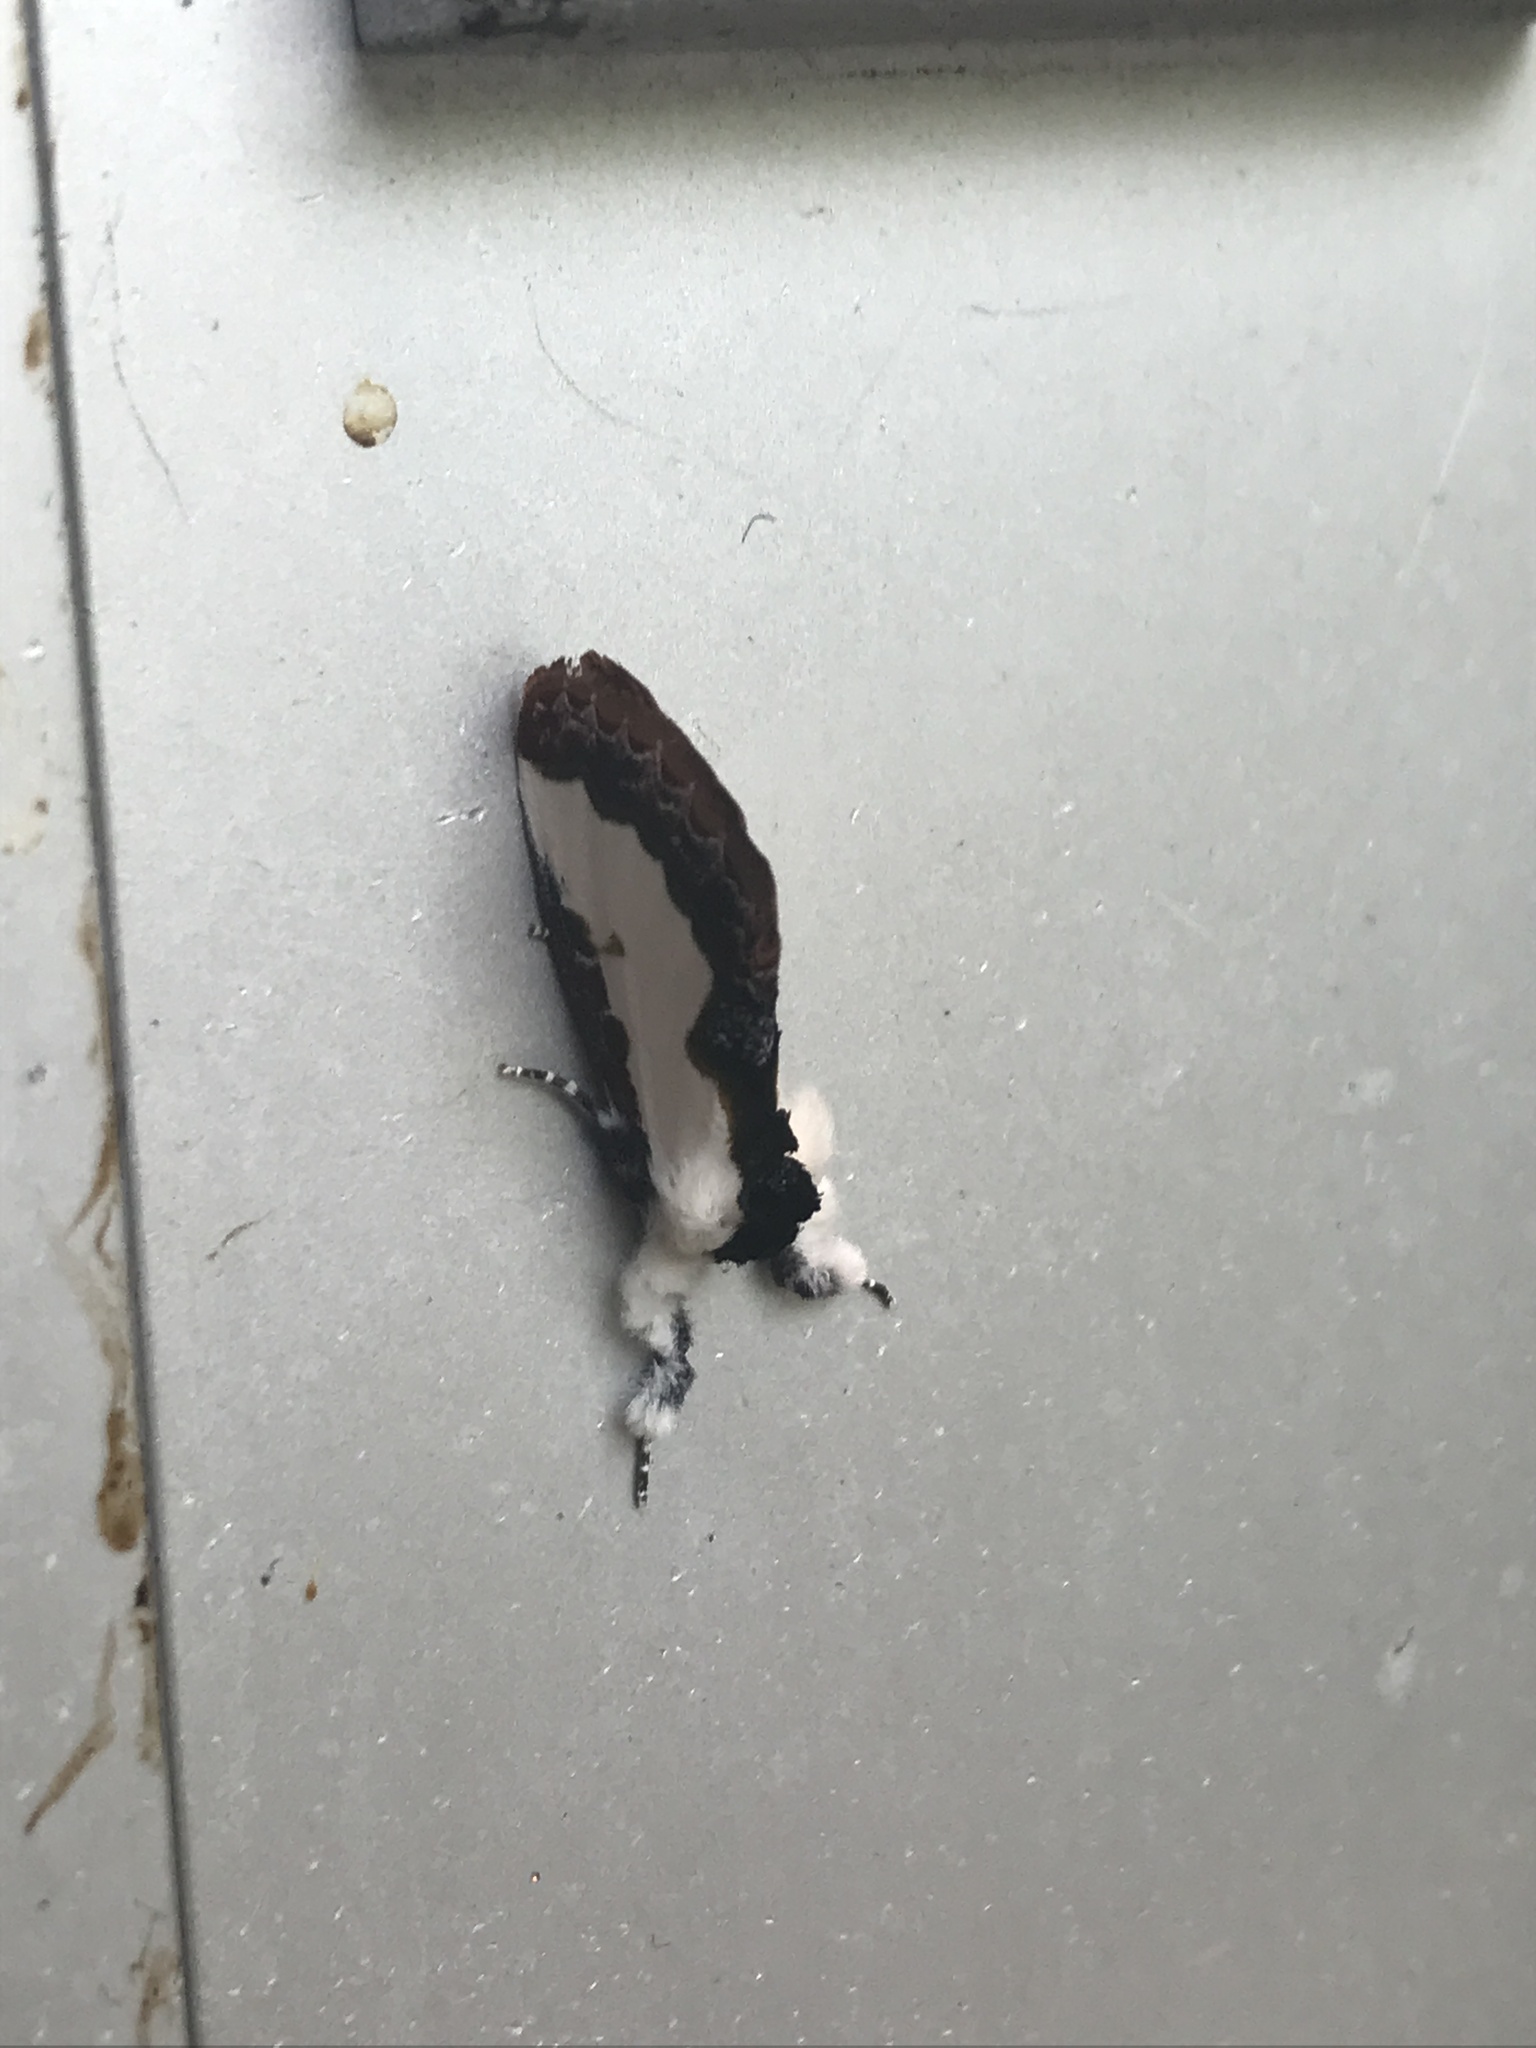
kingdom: Animalia
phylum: Arthropoda
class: Insecta
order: Lepidoptera
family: Noctuidae
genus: Eudryas
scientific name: Eudryas unio
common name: Pearly wood-nymph
